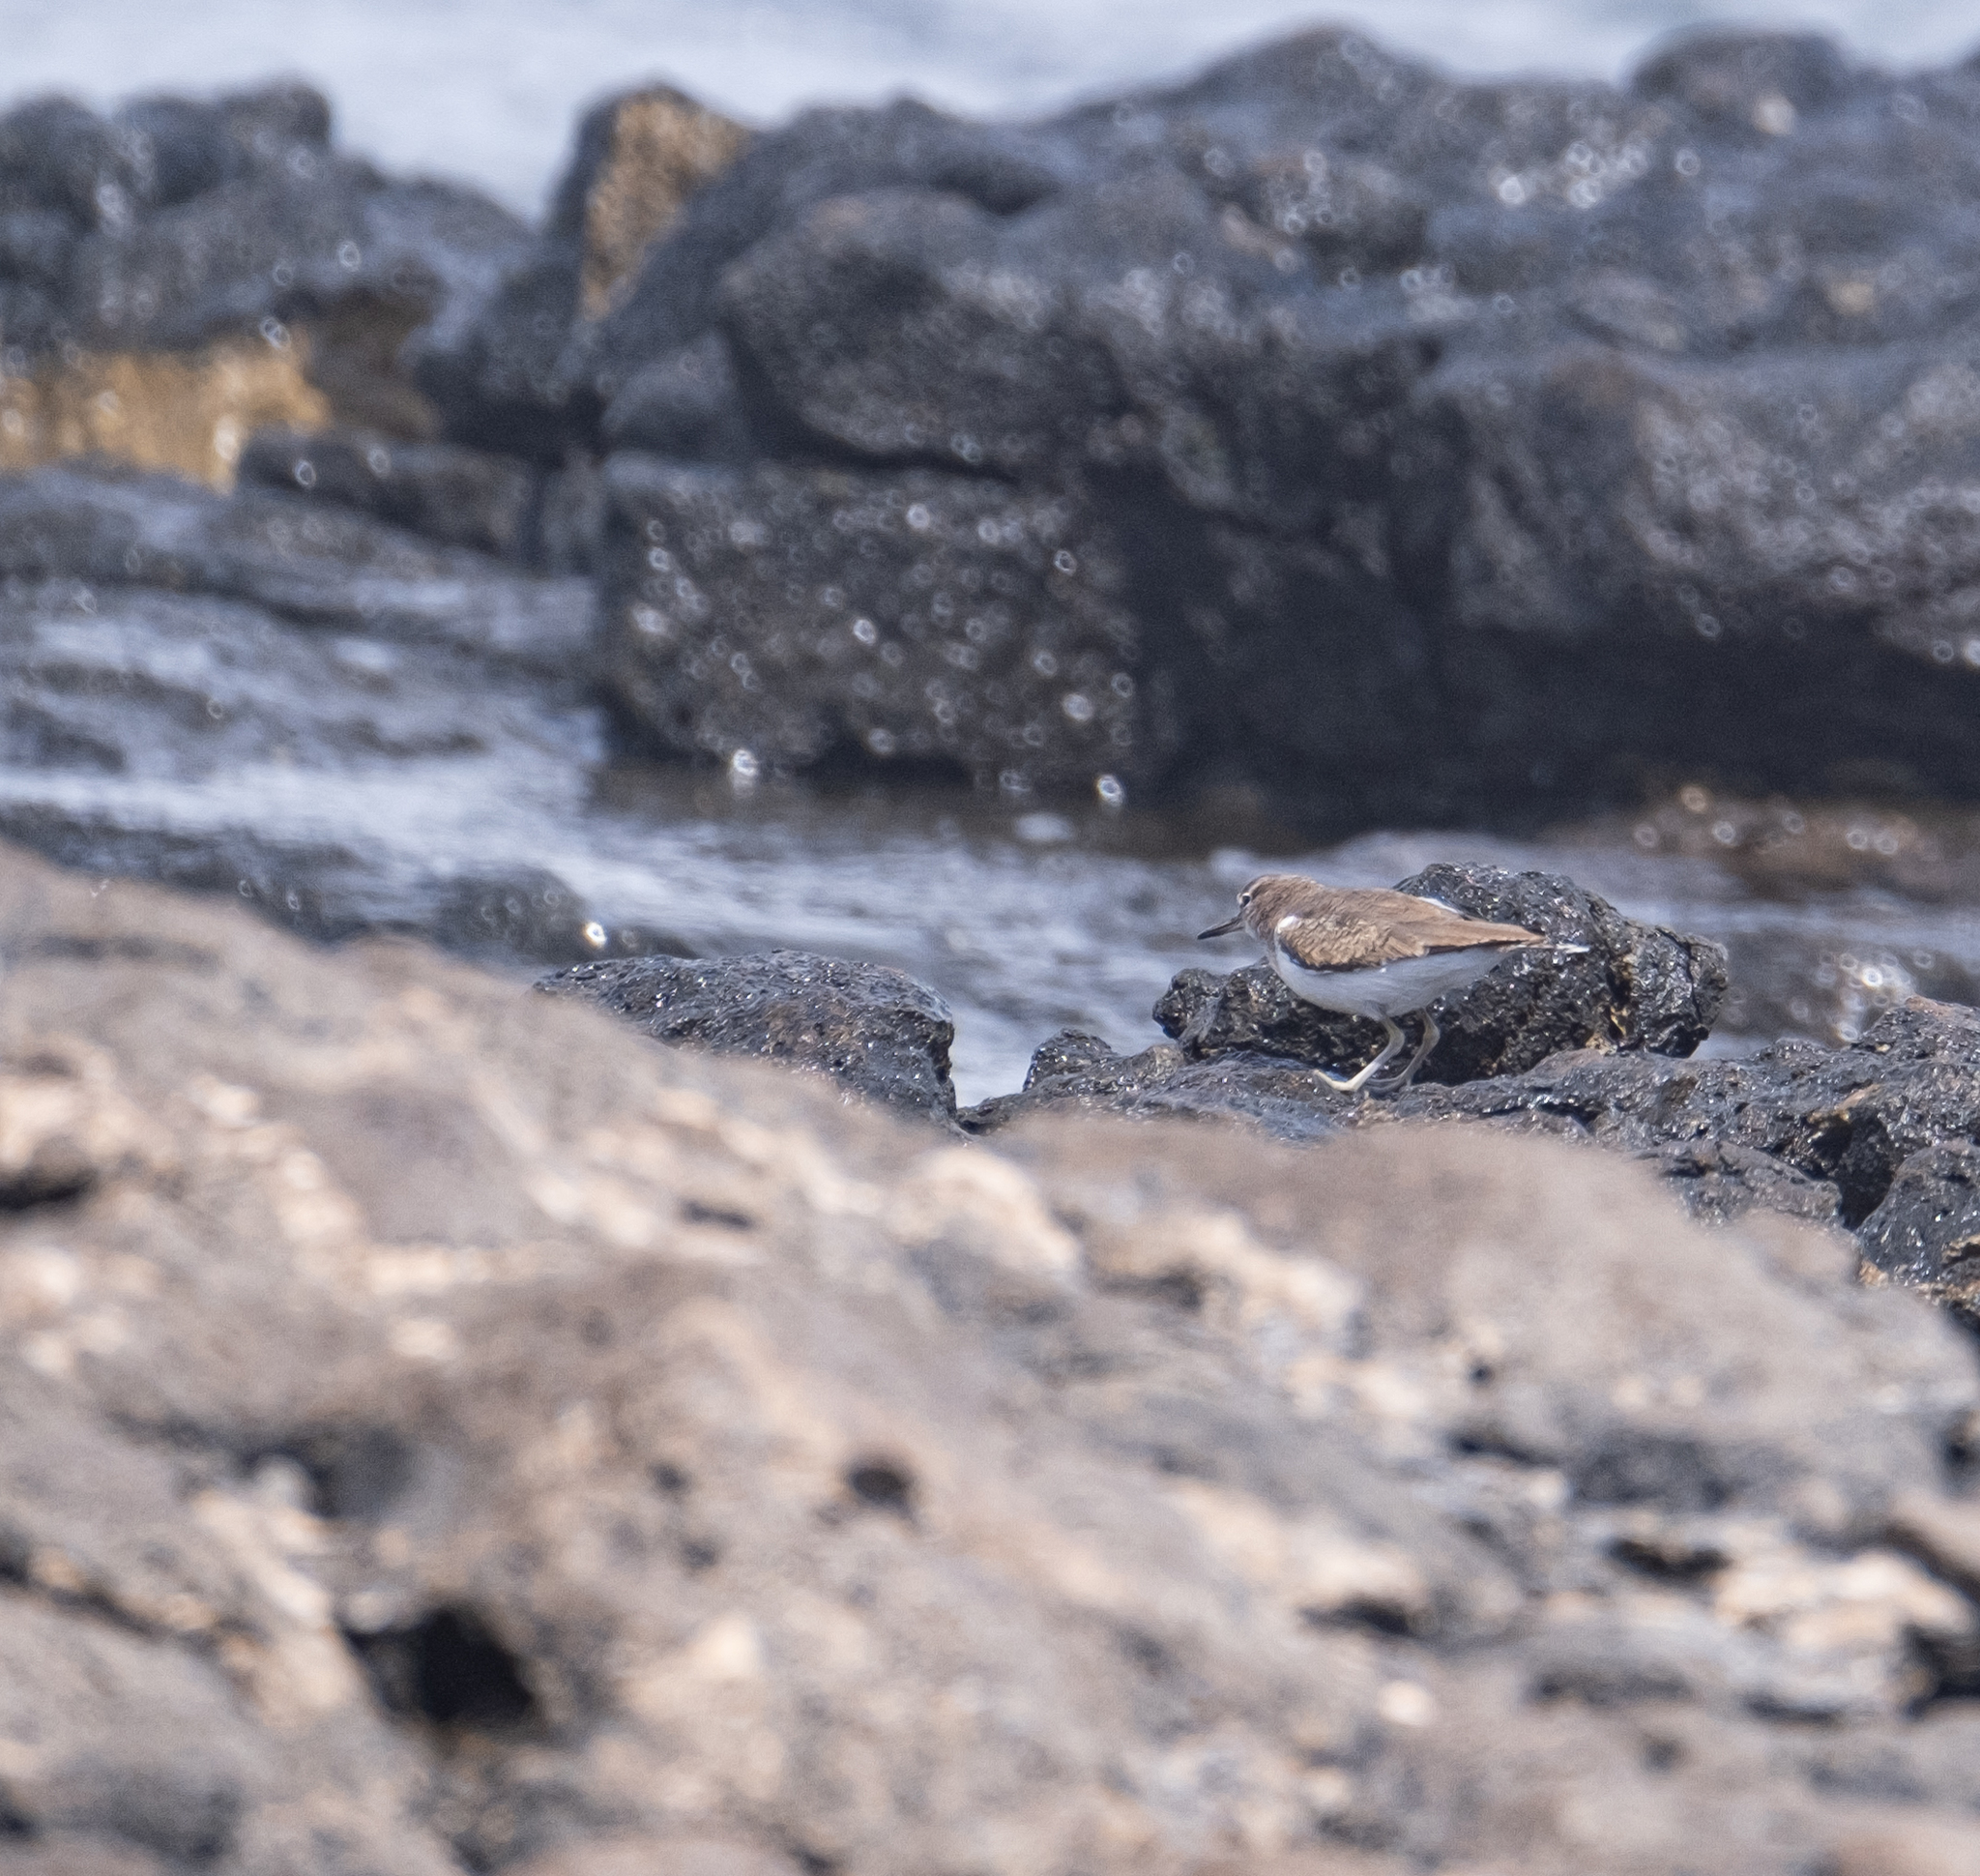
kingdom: Animalia
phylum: Chordata
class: Aves
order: Charadriiformes
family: Scolopacidae
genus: Actitis
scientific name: Actitis hypoleucos
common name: Common sandpiper
